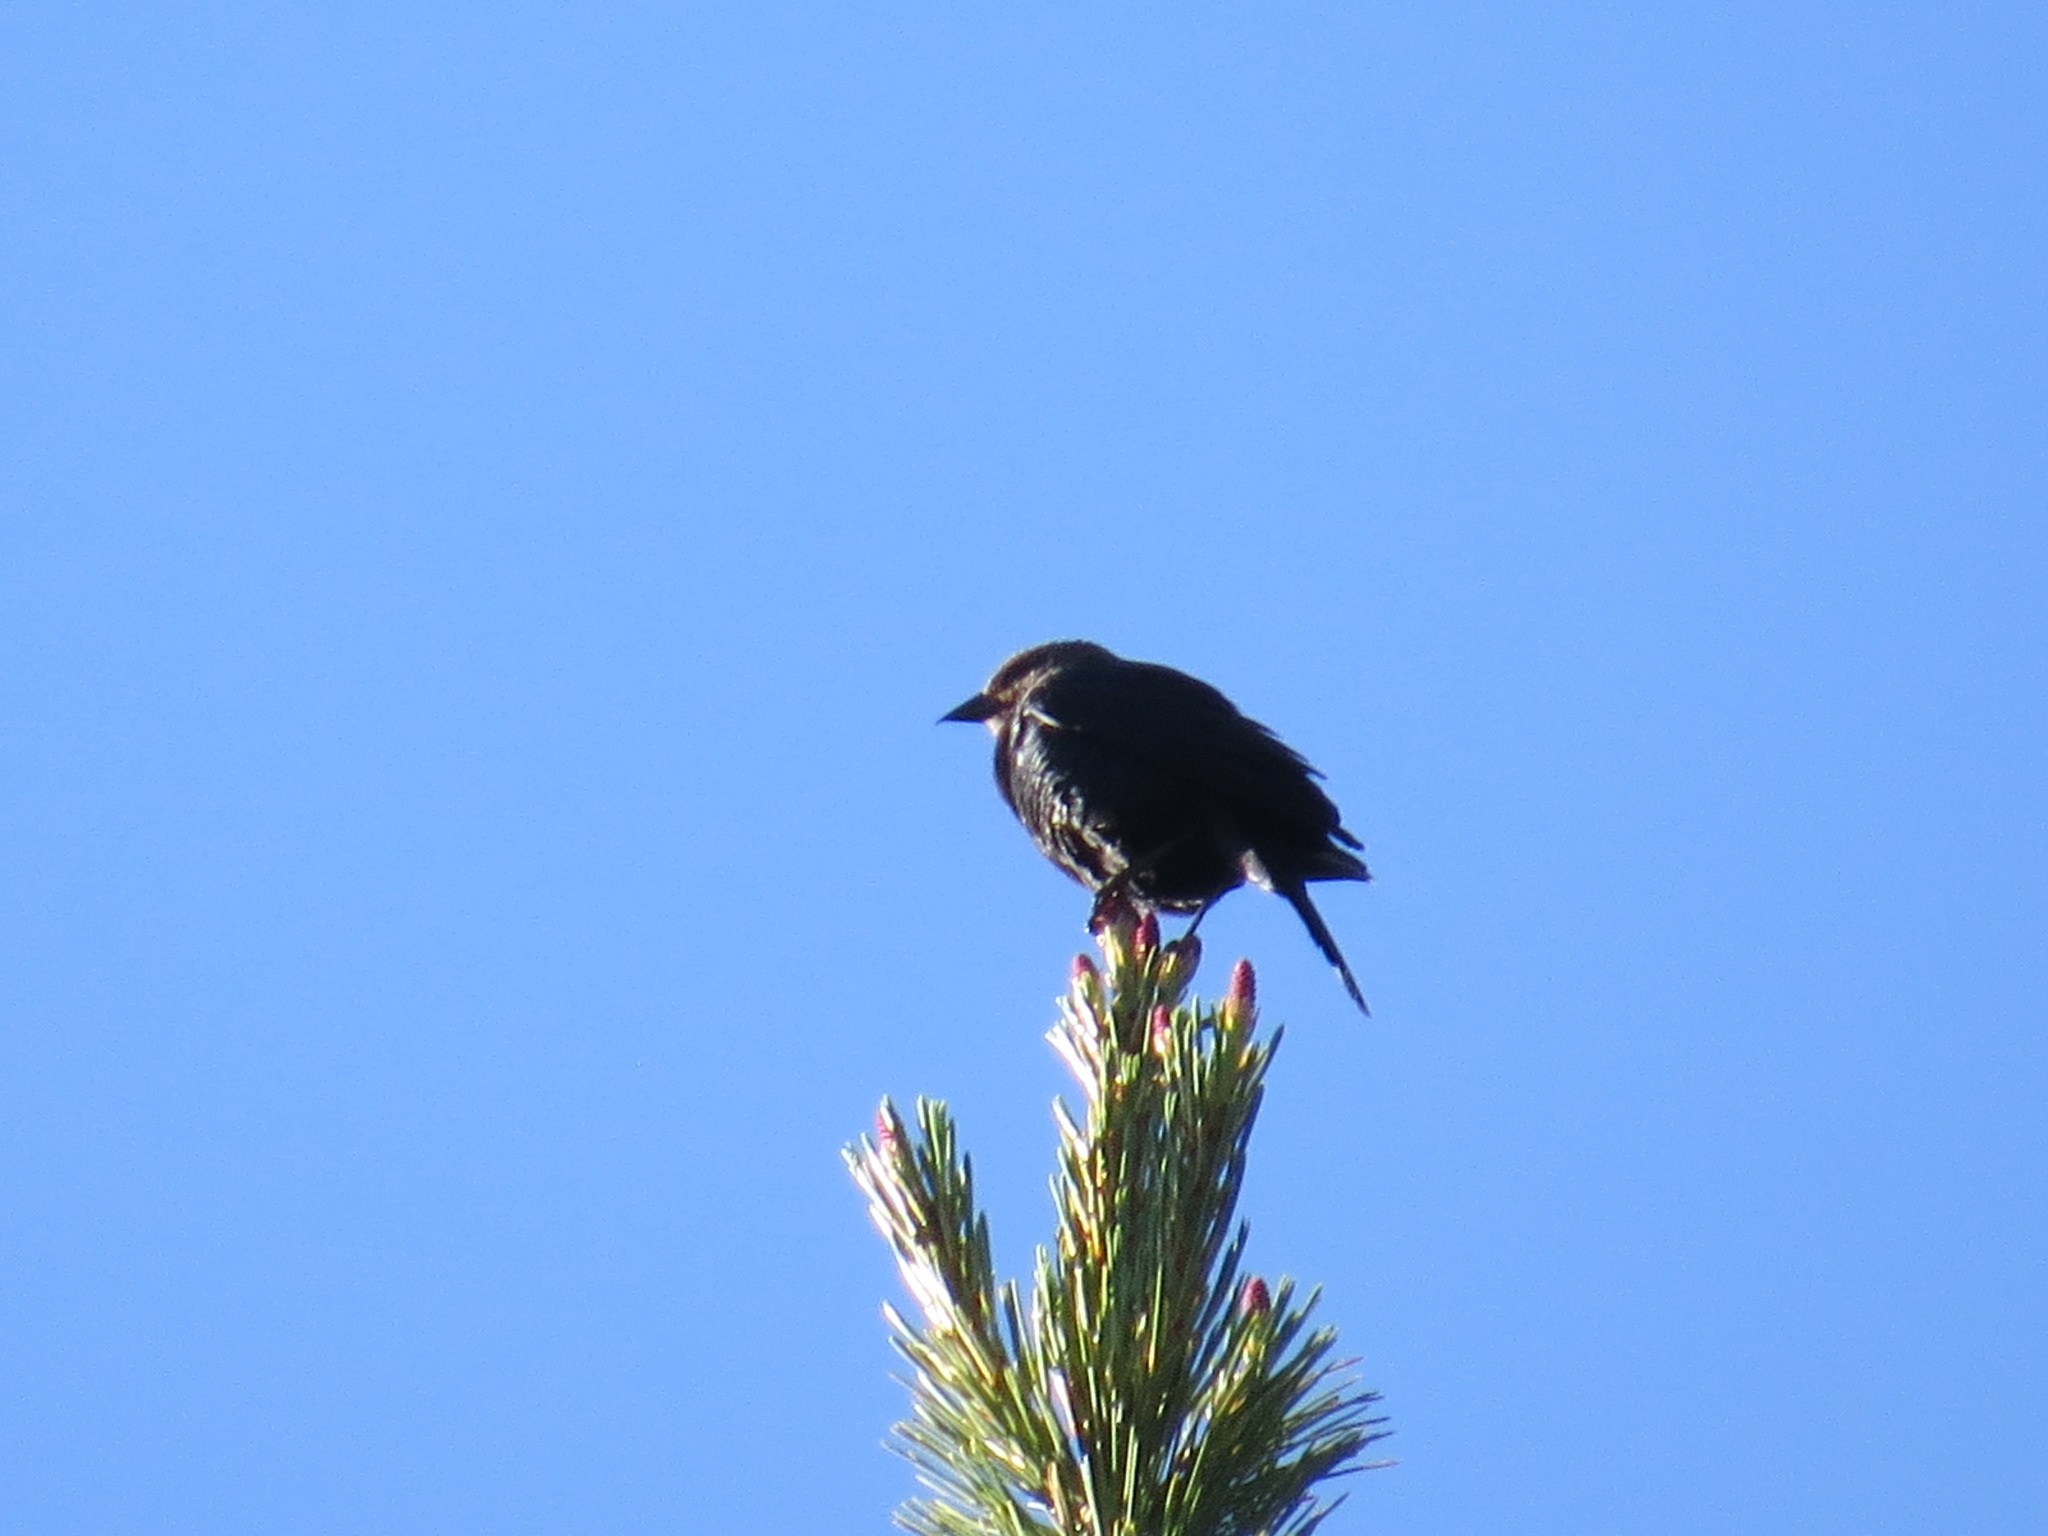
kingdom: Animalia
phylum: Chordata
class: Aves
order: Passeriformes
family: Icteridae
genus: Molothrus
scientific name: Molothrus ater
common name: Brown-headed cowbird
